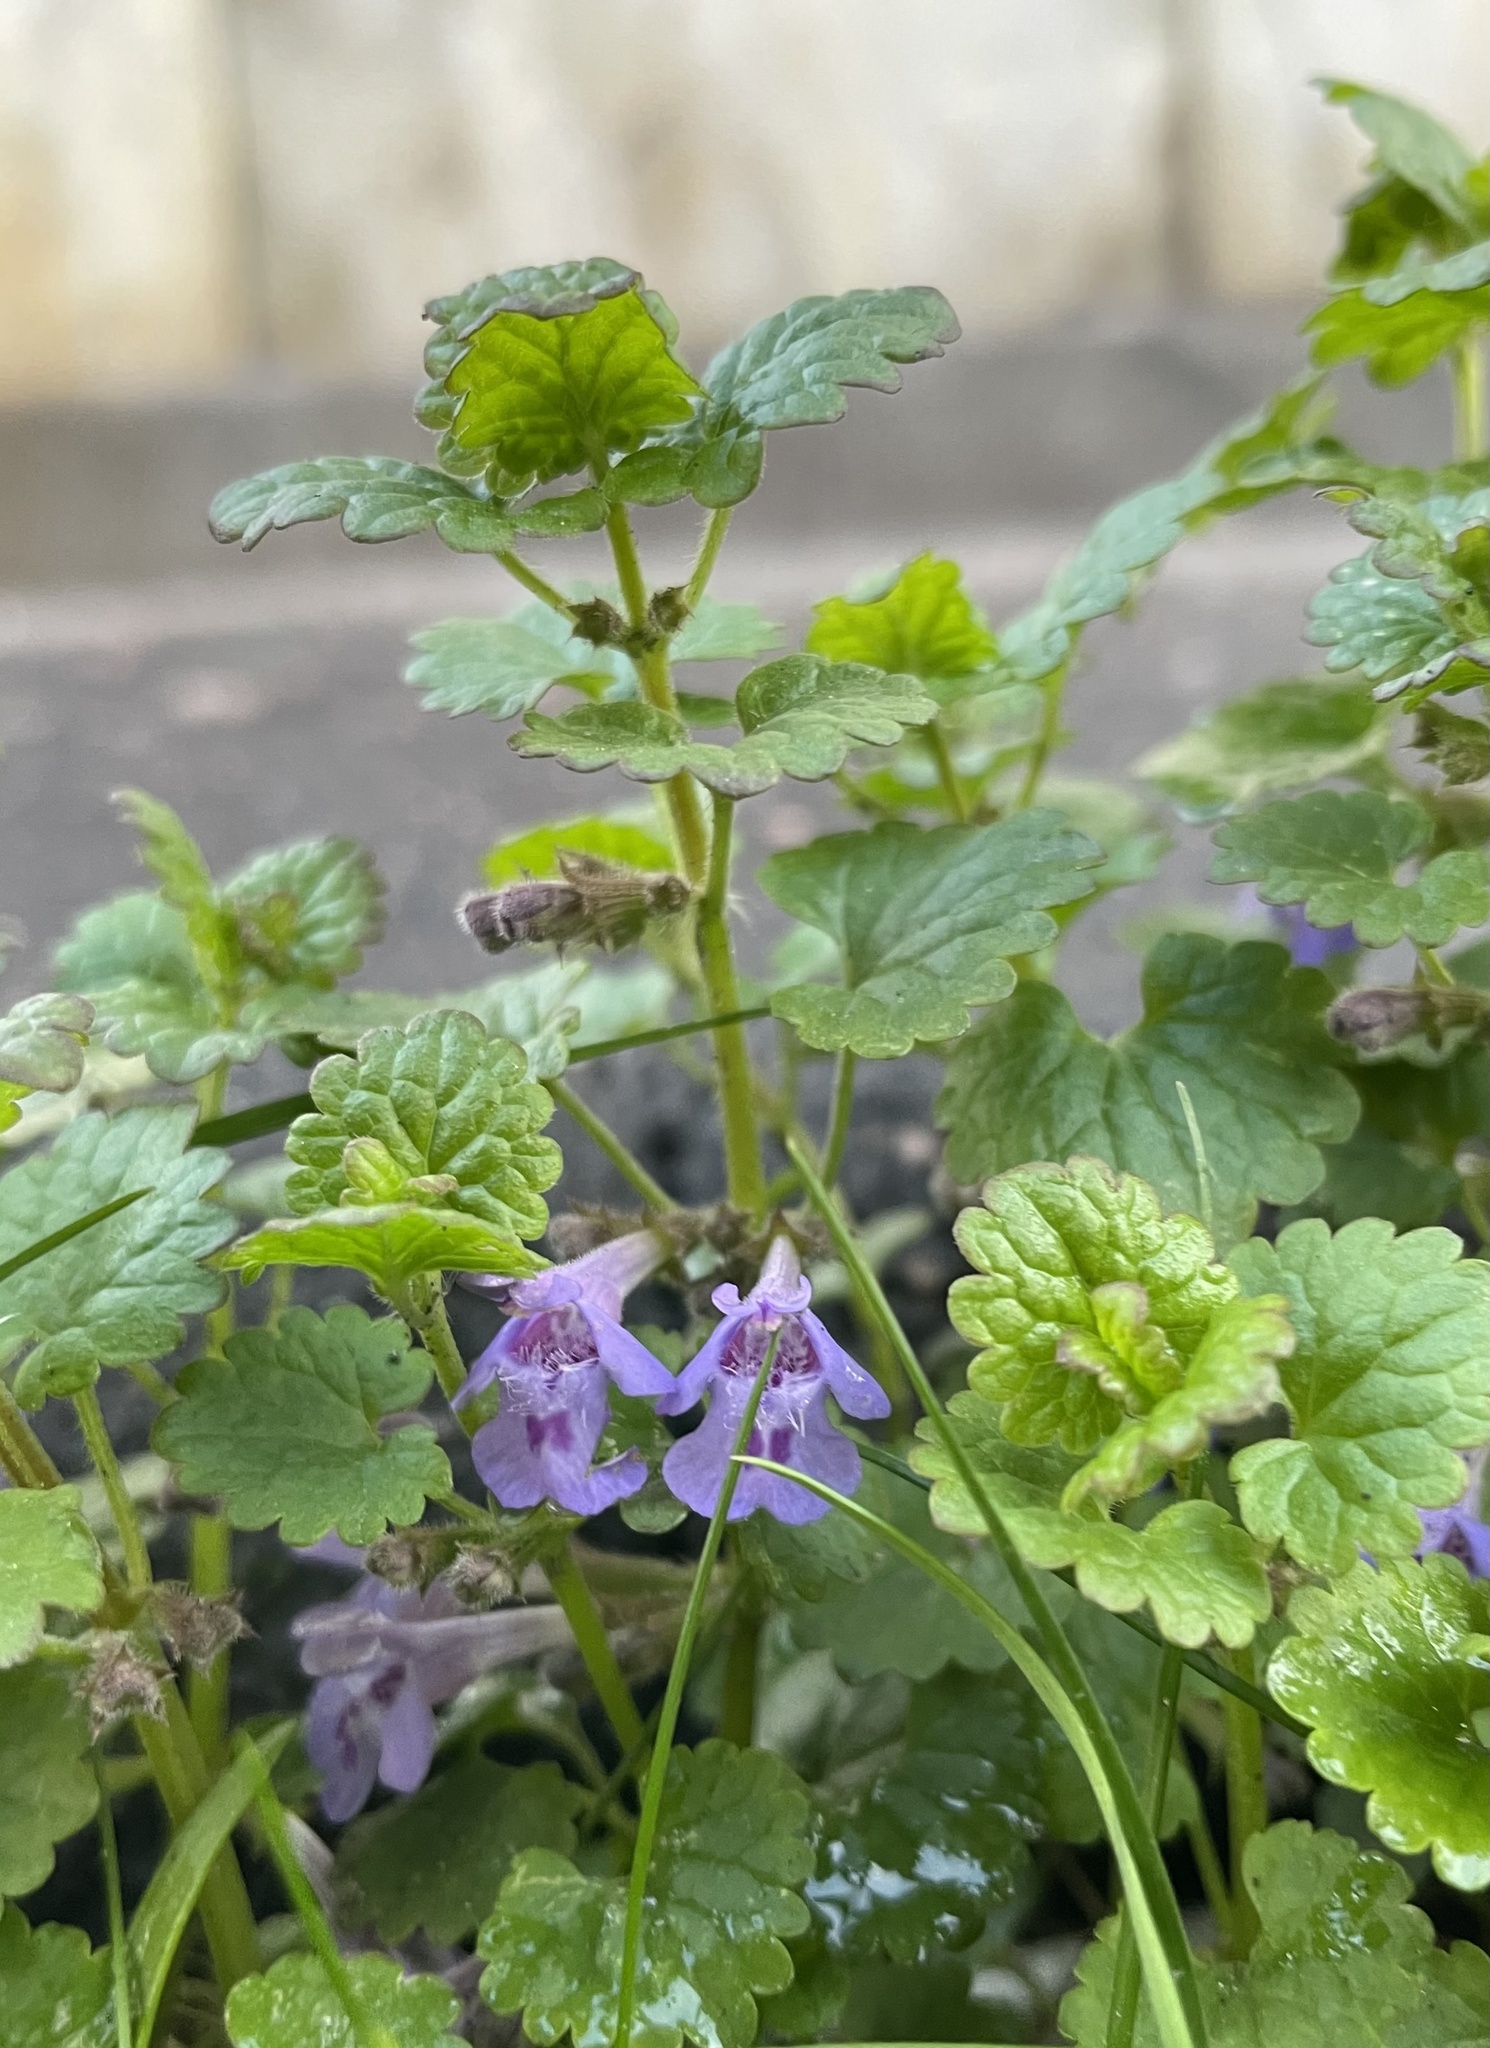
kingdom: Plantae
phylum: Tracheophyta
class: Magnoliopsida
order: Lamiales
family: Lamiaceae
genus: Glechoma
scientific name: Glechoma hederacea
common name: Ground ivy
